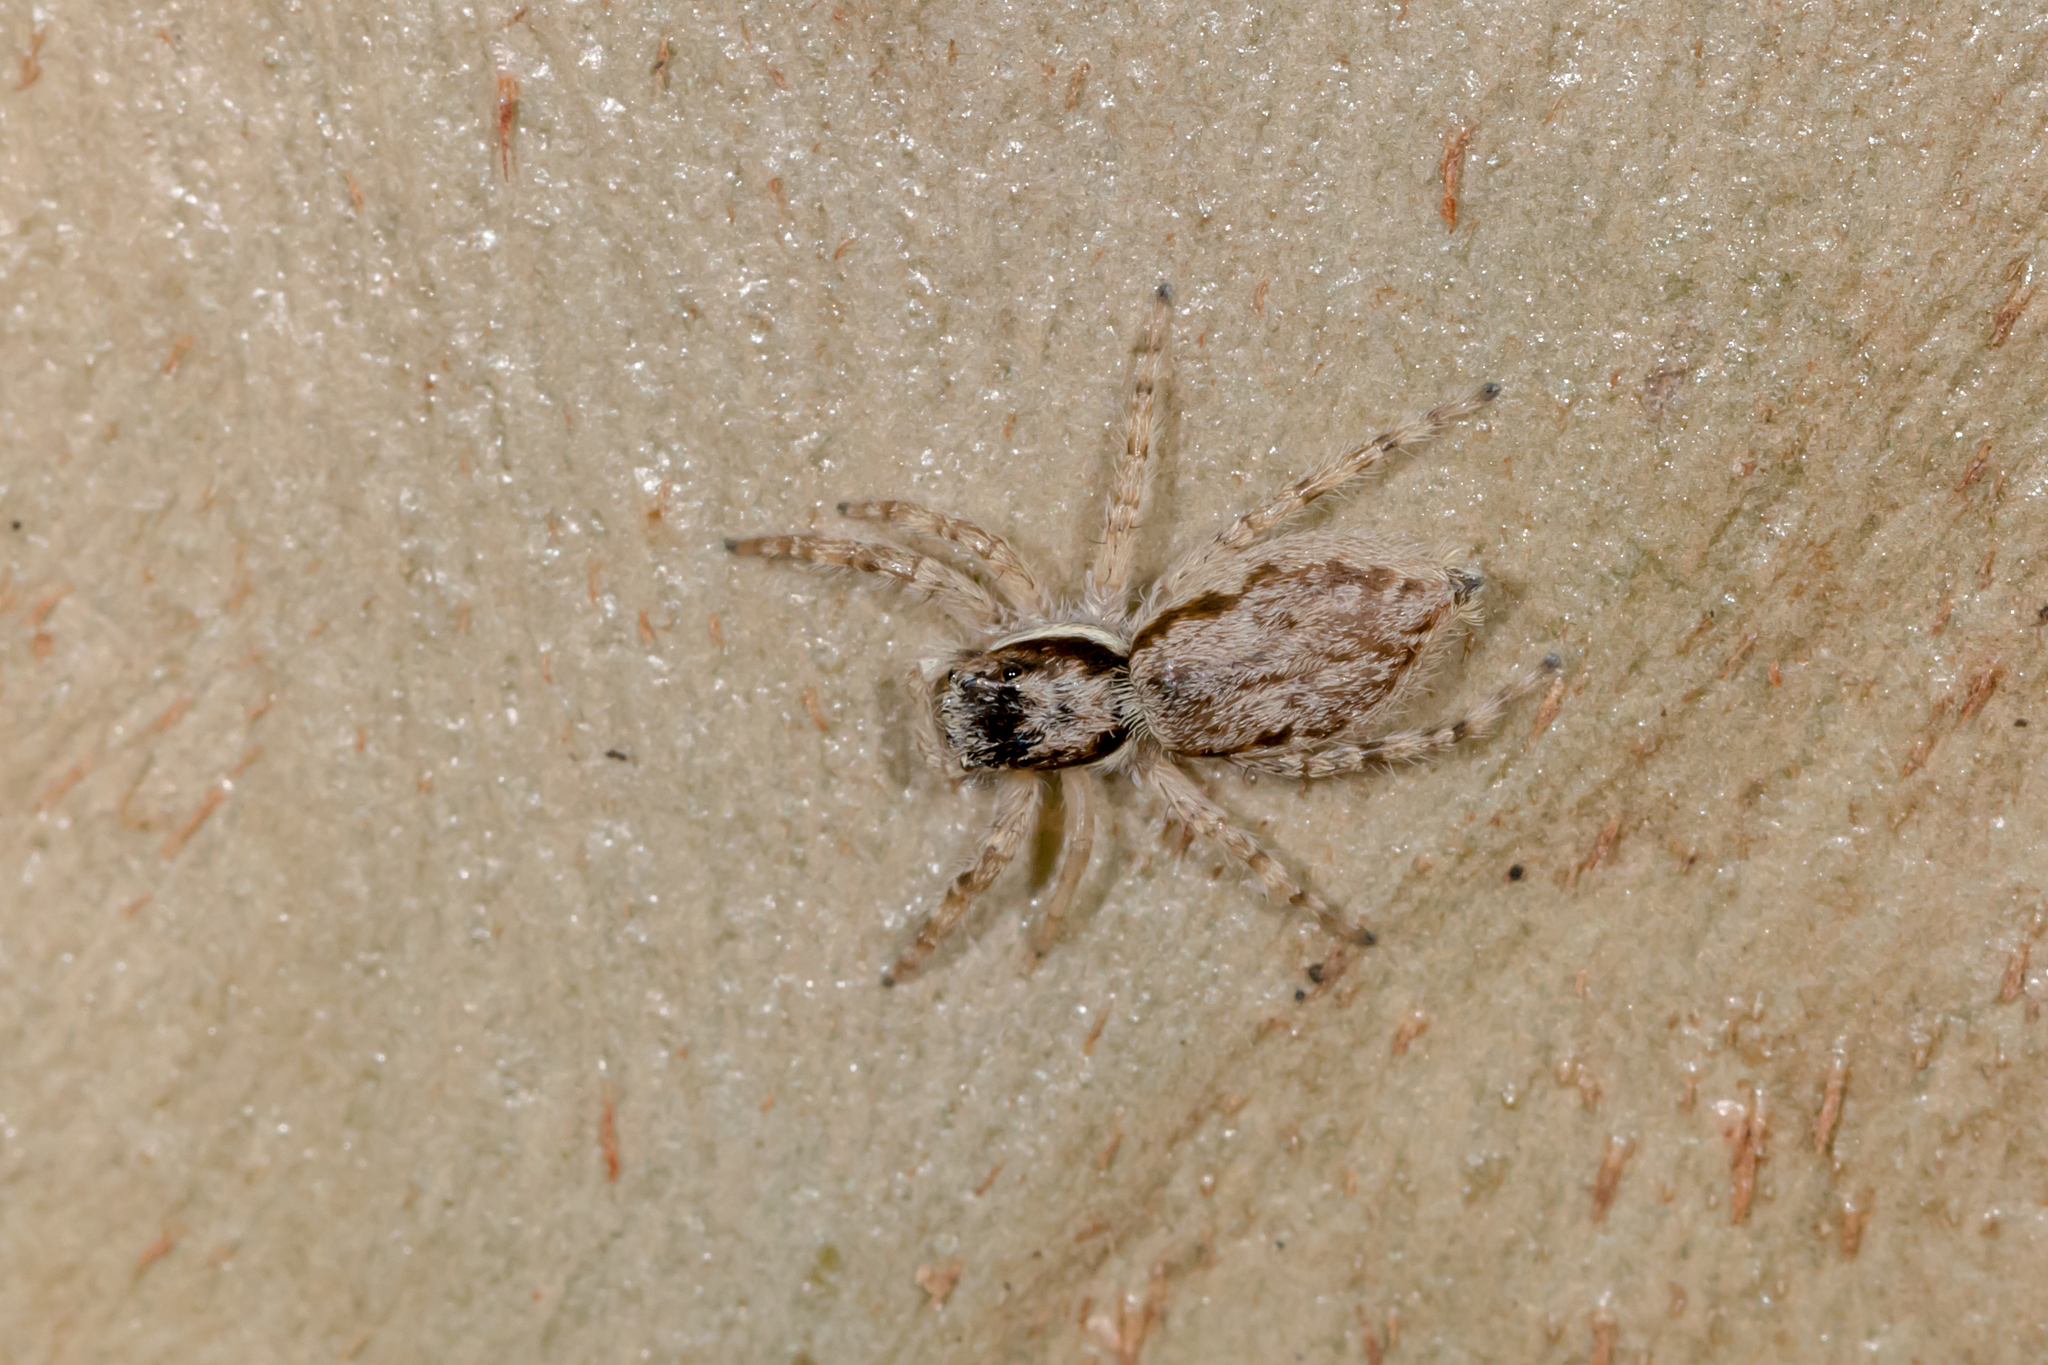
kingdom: Animalia
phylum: Arthropoda
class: Arachnida
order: Araneae
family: Salticidae
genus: Menemerus
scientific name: Menemerus bivittatus
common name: Gray wall jumper
